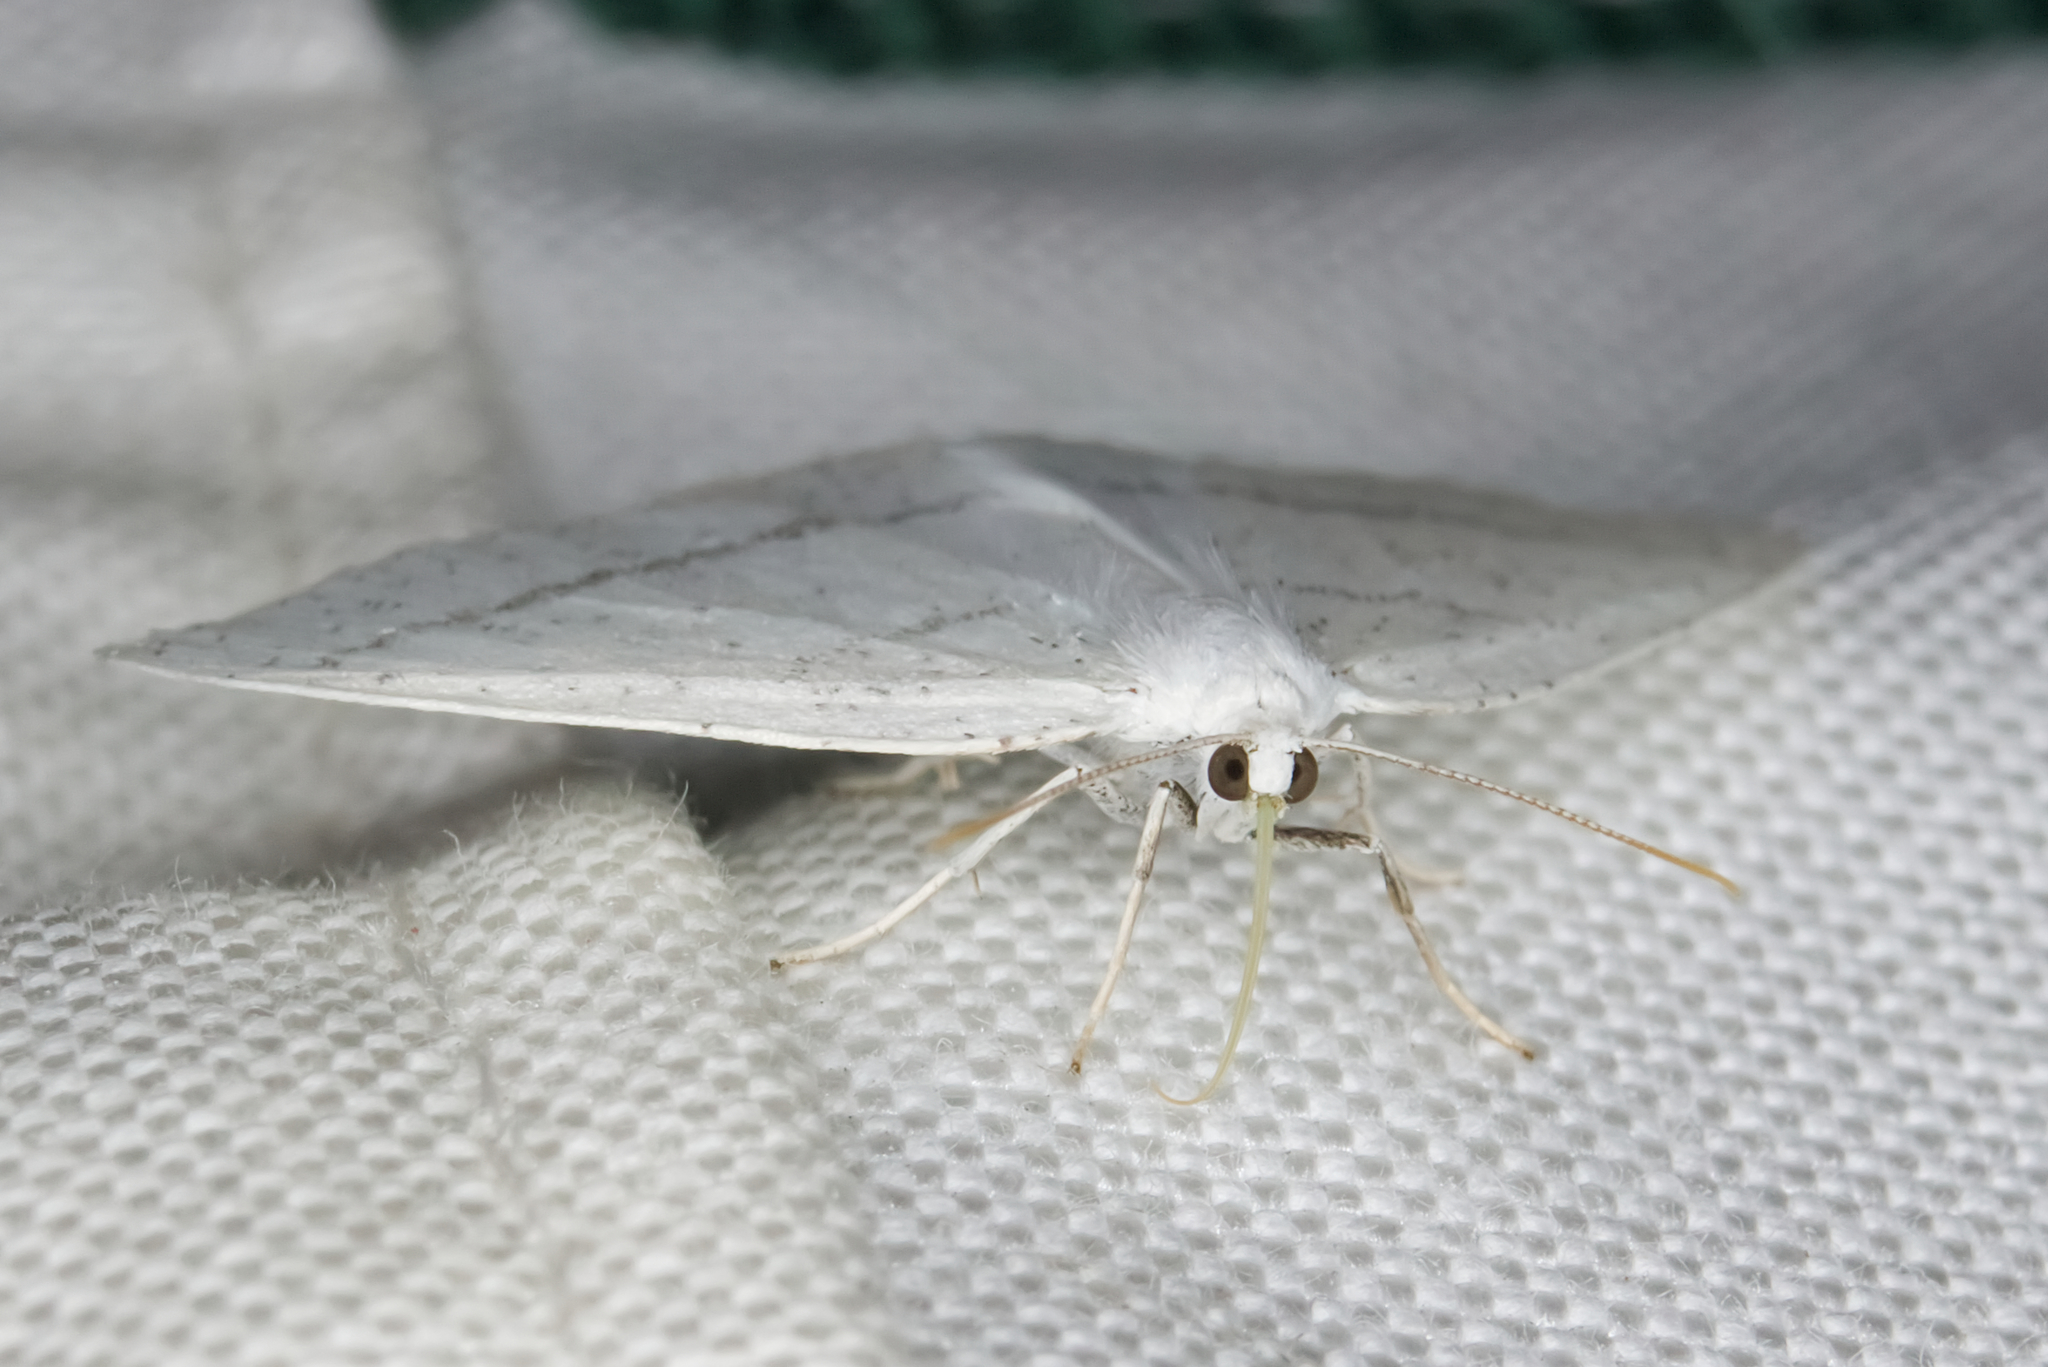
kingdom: Animalia
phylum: Arthropoda
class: Insecta
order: Lepidoptera
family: Geometridae
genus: Cabera
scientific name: Cabera pusaria
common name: Common white wave
